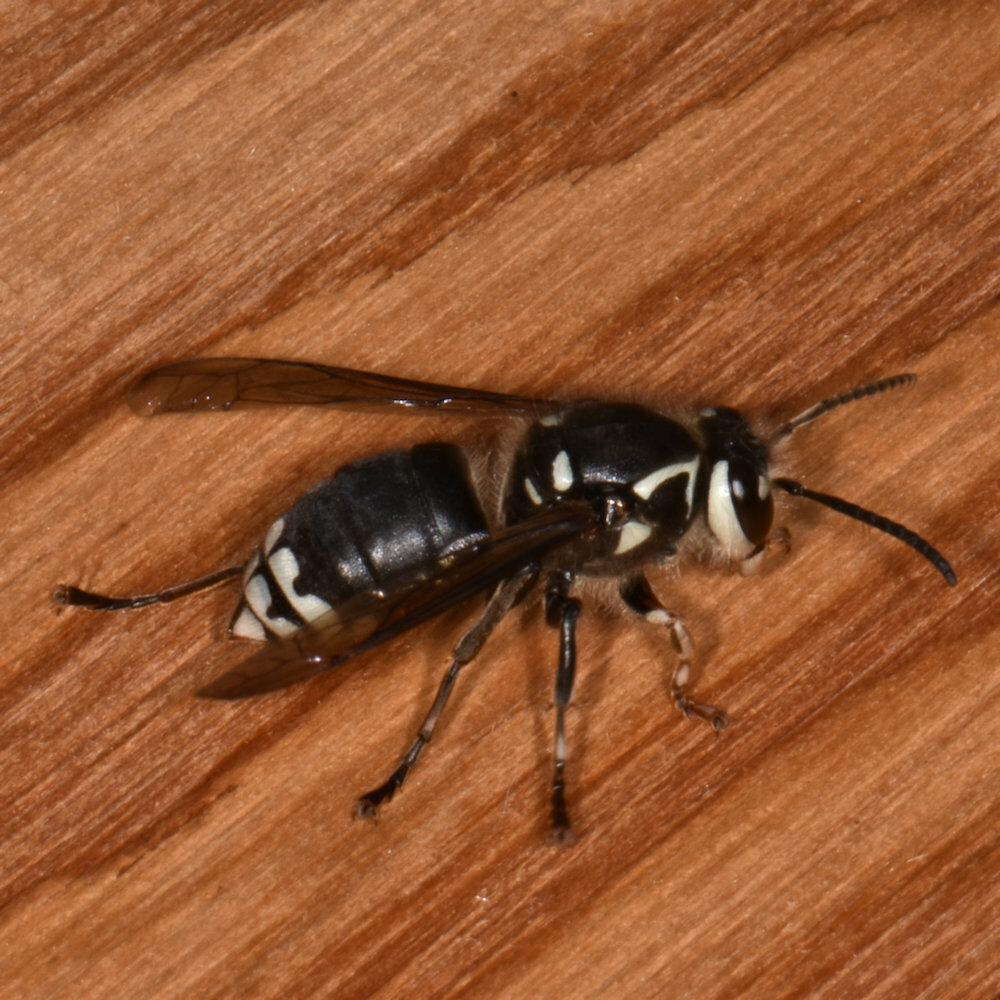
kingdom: Animalia
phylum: Arthropoda
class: Insecta
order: Hymenoptera
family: Vespidae
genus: Dolichovespula
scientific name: Dolichovespula maculata
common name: Bald-faced hornet
